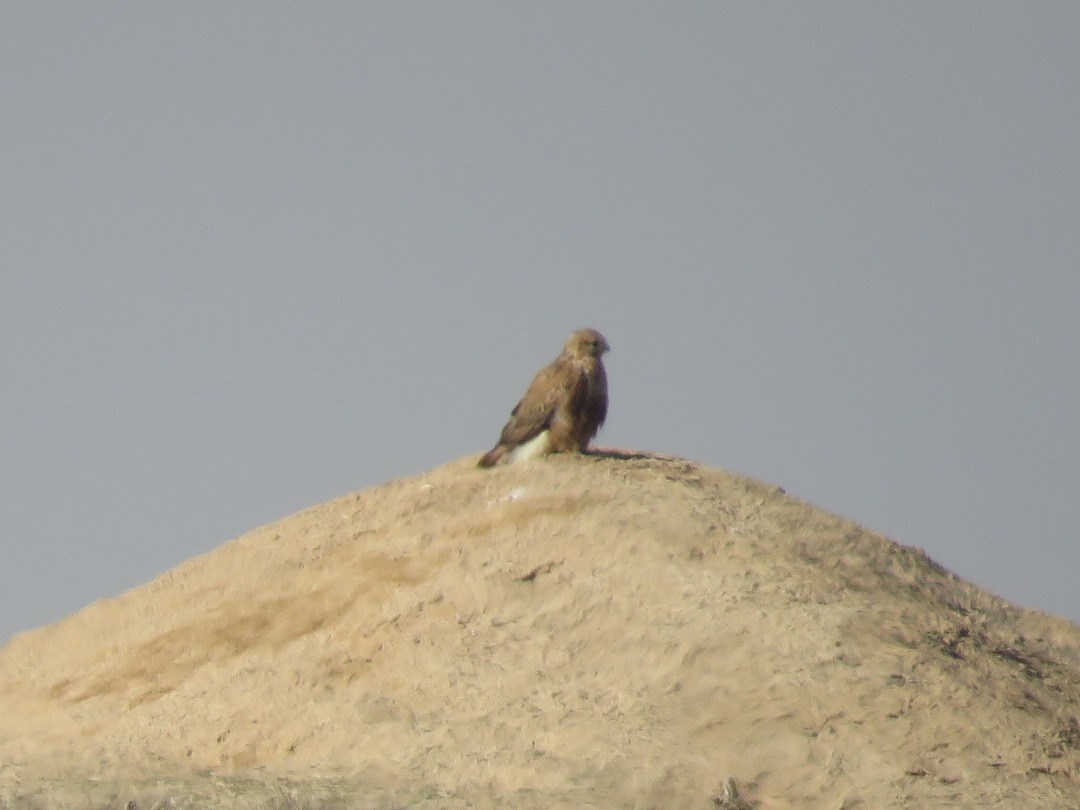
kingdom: Animalia
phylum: Chordata
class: Aves
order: Accipitriformes
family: Accipitridae
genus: Buteo
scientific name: Buteo buteo
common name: Common buzzard
